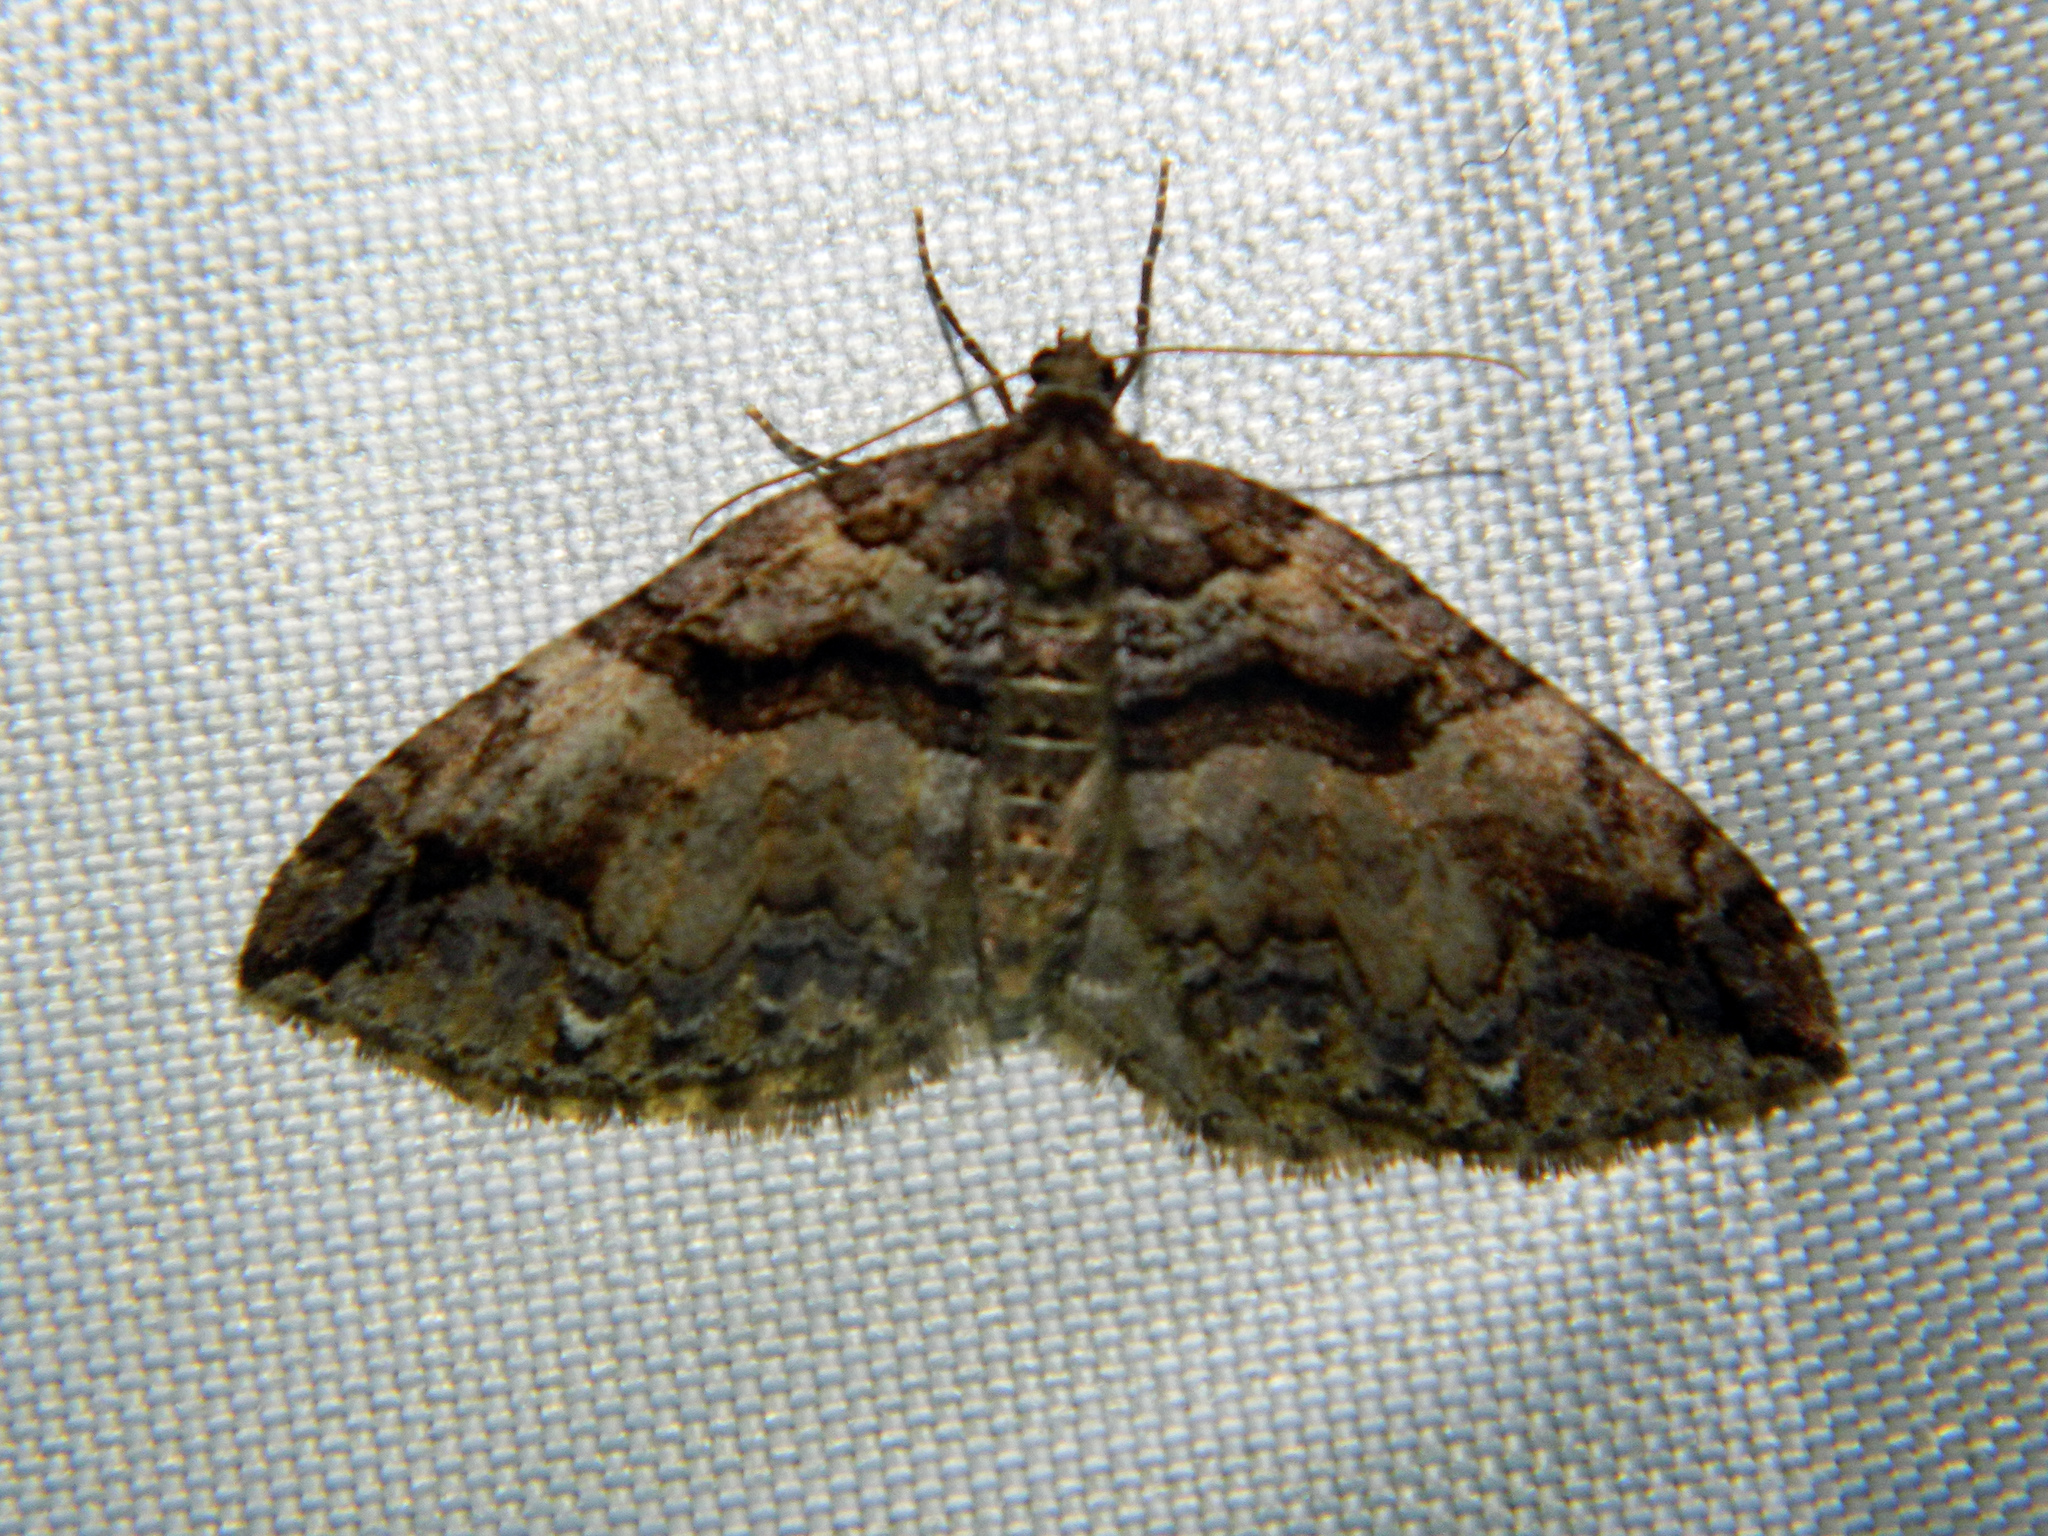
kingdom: Animalia
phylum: Arthropoda
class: Insecta
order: Lepidoptera
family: Geometridae
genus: Anticlea
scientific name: Anticlea vasiliata
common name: Variable carpet
